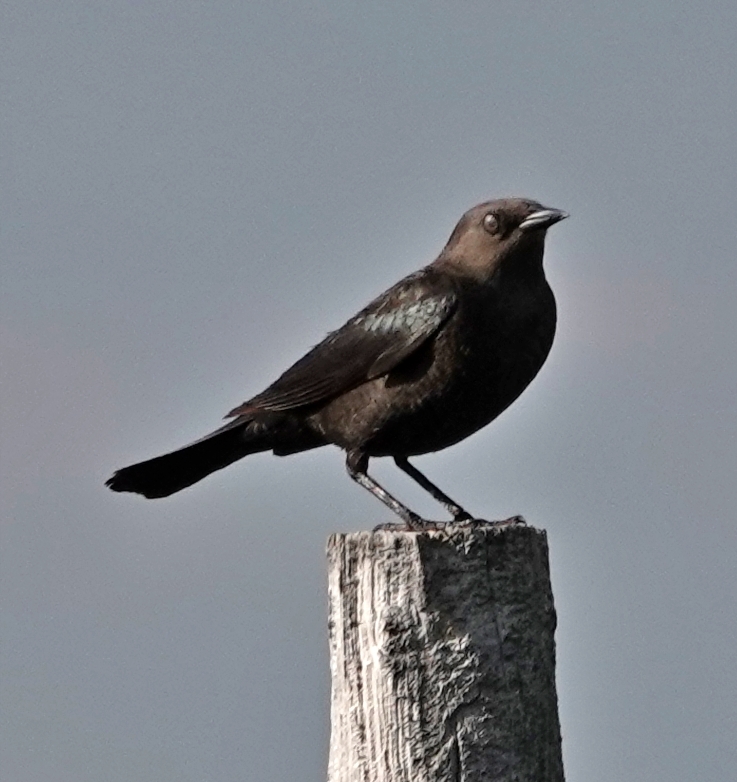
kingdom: Animalia
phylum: Chordata
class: Aves
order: Passeriformes
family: Icteridae
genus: Euphagus
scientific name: Euphagus cyanocephalus
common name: Brewer's blackbird
